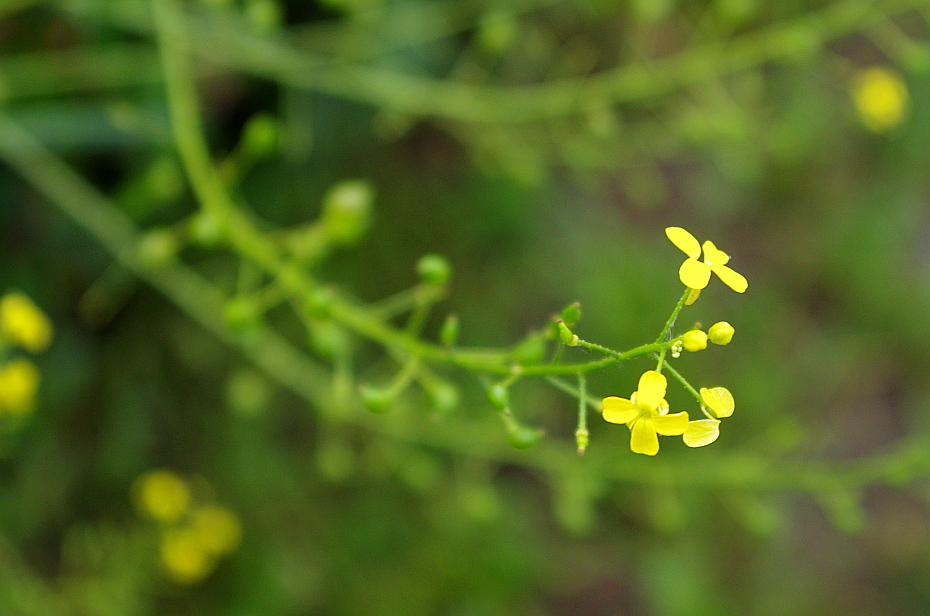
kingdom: Plantae
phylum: Tracheophyta
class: Magnoliopsida
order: Brassicales
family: Brassicaceae
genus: Bunias
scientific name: Bunias orientalis
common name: Warty-cabbage
